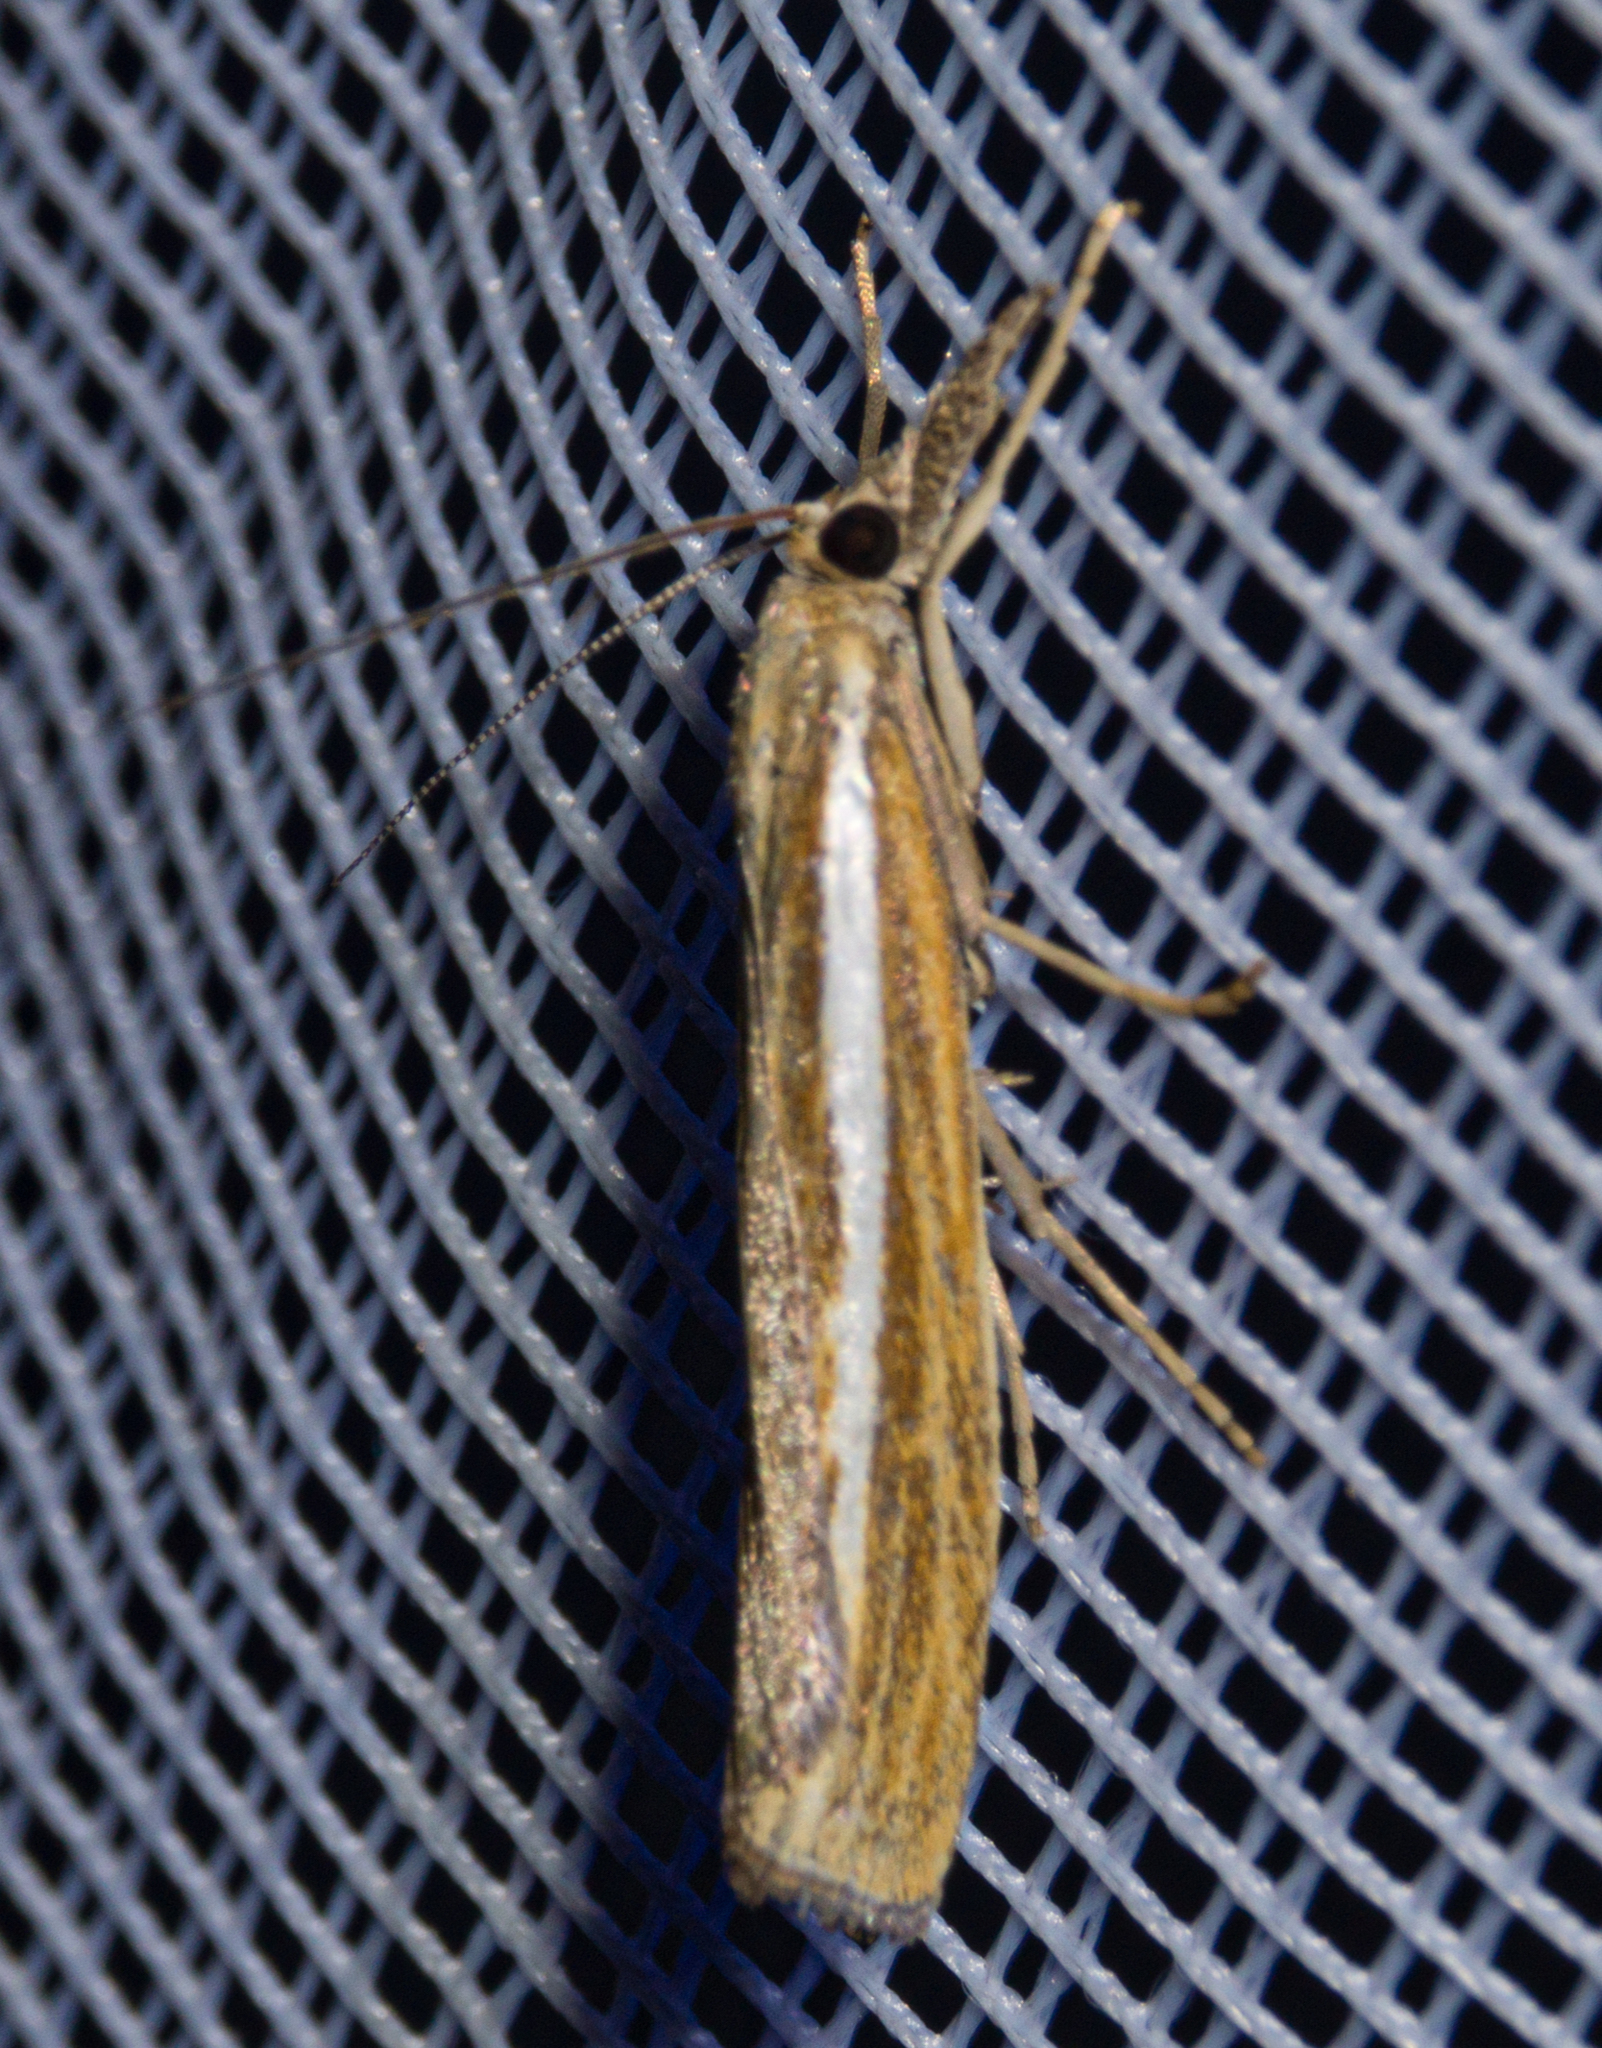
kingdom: Animalia
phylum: Arthropoda
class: Insecta
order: Lepidoptera
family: Crambidae
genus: Agriphila
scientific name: Agriphila tristellus
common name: Common grass-veneer
